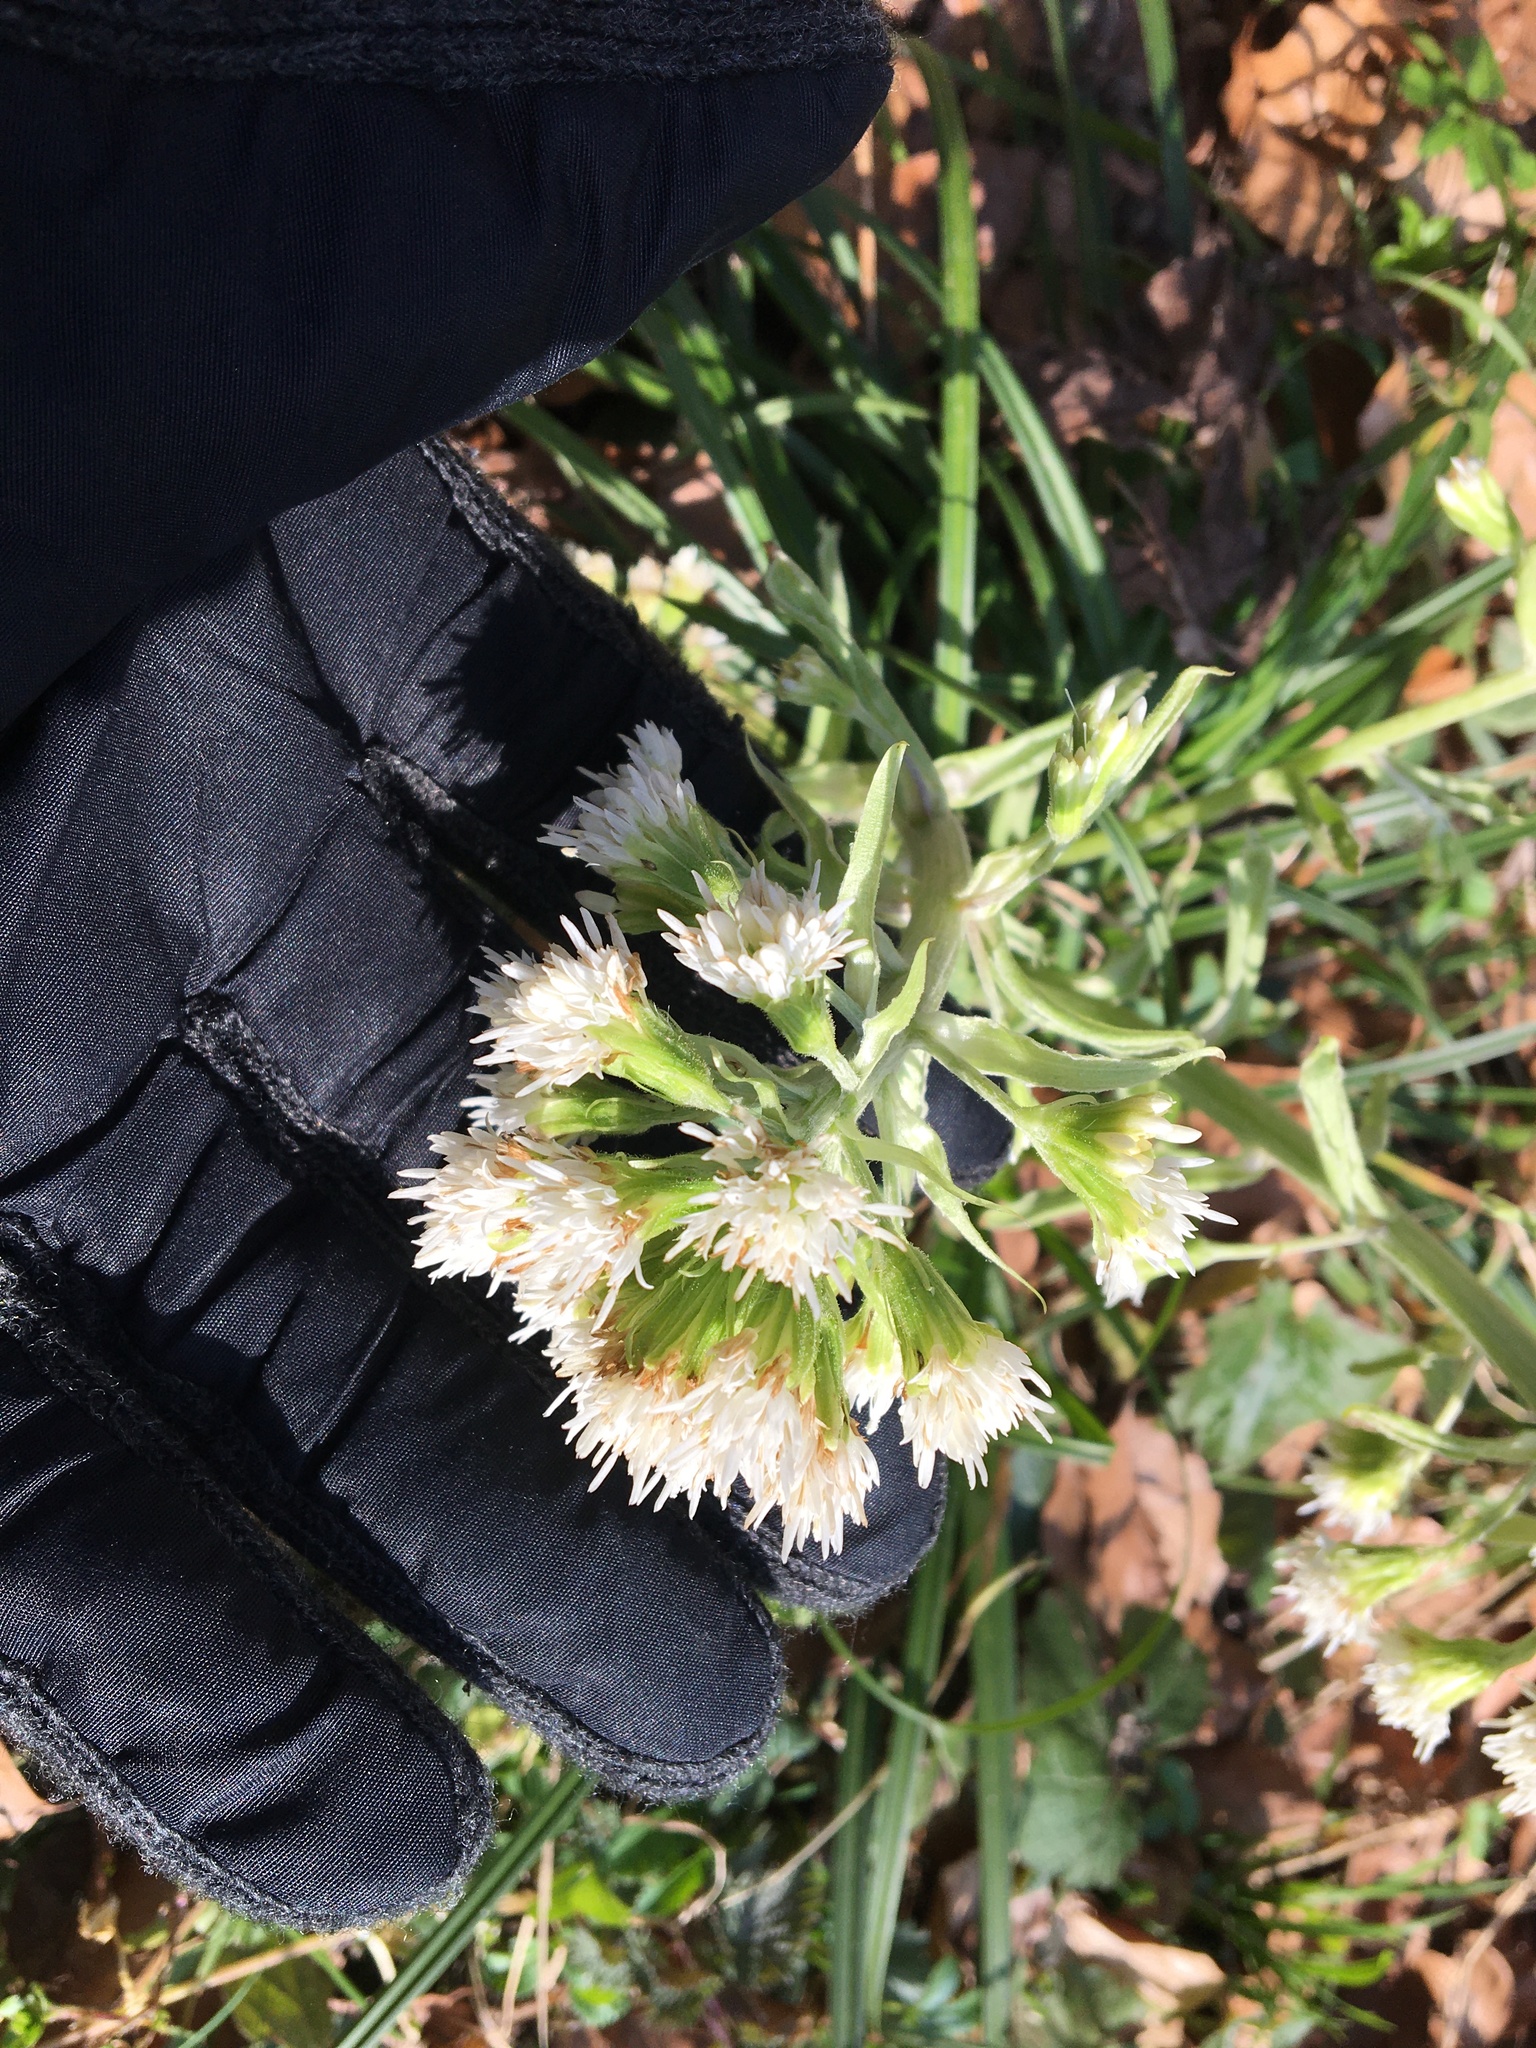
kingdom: Plantae
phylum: Tracheophyta
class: Magnoliopsida
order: Asterales
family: Asteraceae
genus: Petasites
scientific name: Petasites albus
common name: White butterbur
